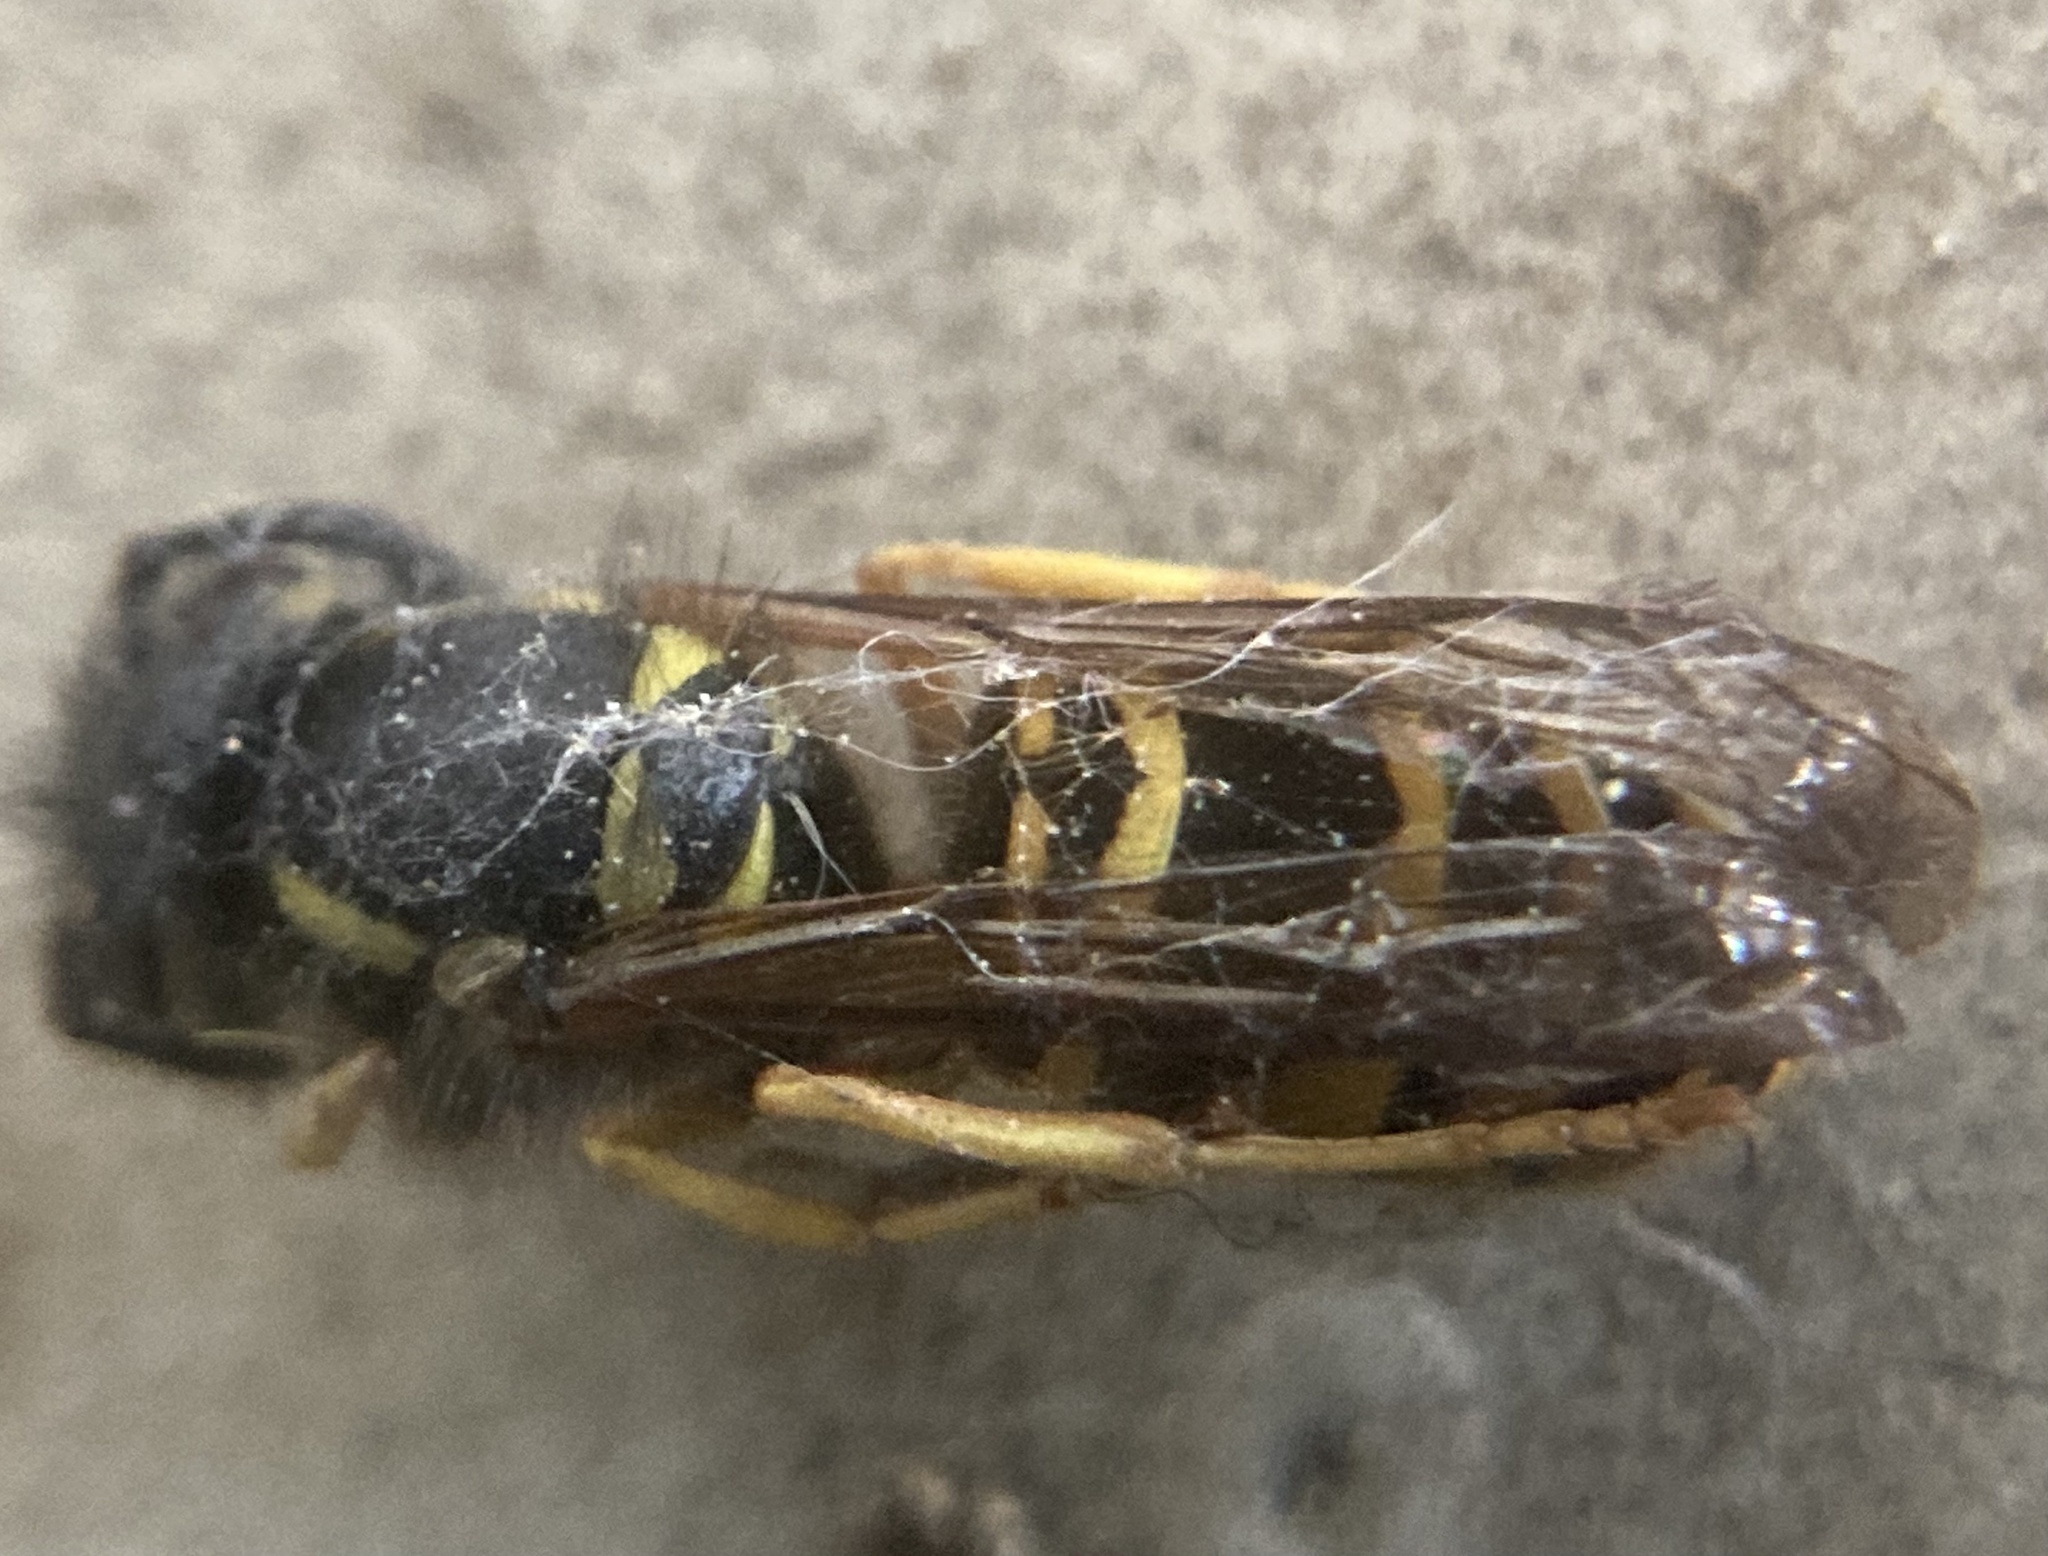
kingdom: Animalia
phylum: Arthropoda
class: Insecta
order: Hymenoptera
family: Vespidae
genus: Vespula
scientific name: Vespula maculifrons
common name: Eastern yellowjacket
